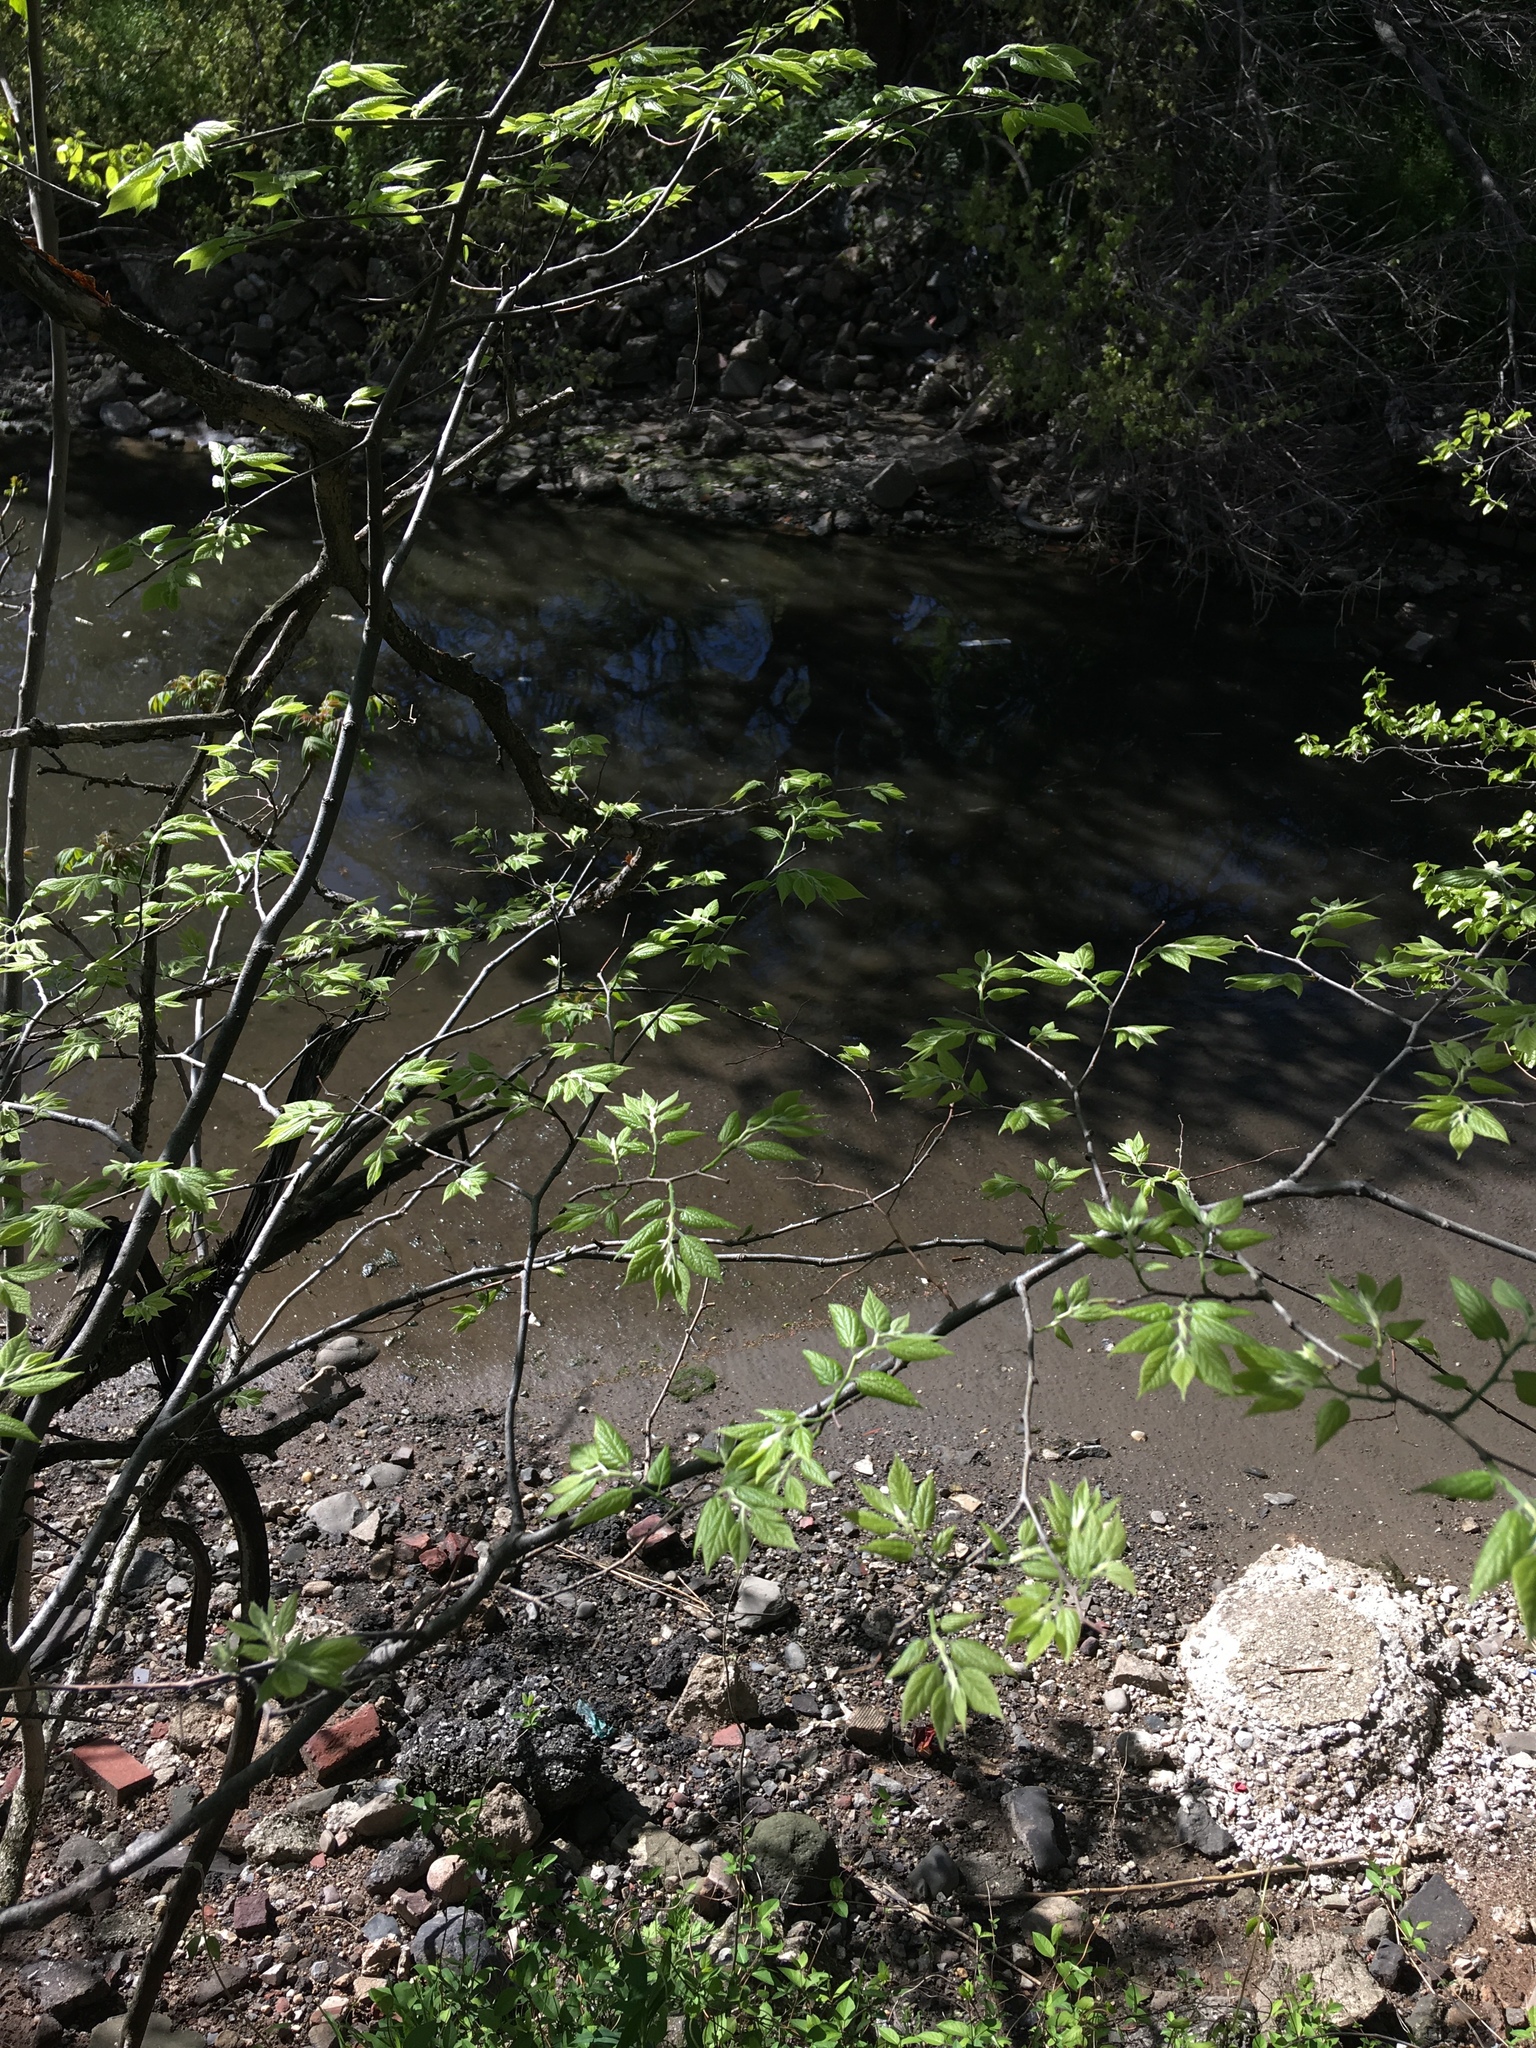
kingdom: Plantae
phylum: Tracheophyta
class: Magnoliopsida
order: Rosales
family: Cannabaceae
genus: Celtis
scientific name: Celtis occidentalis
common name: Common hackberry
